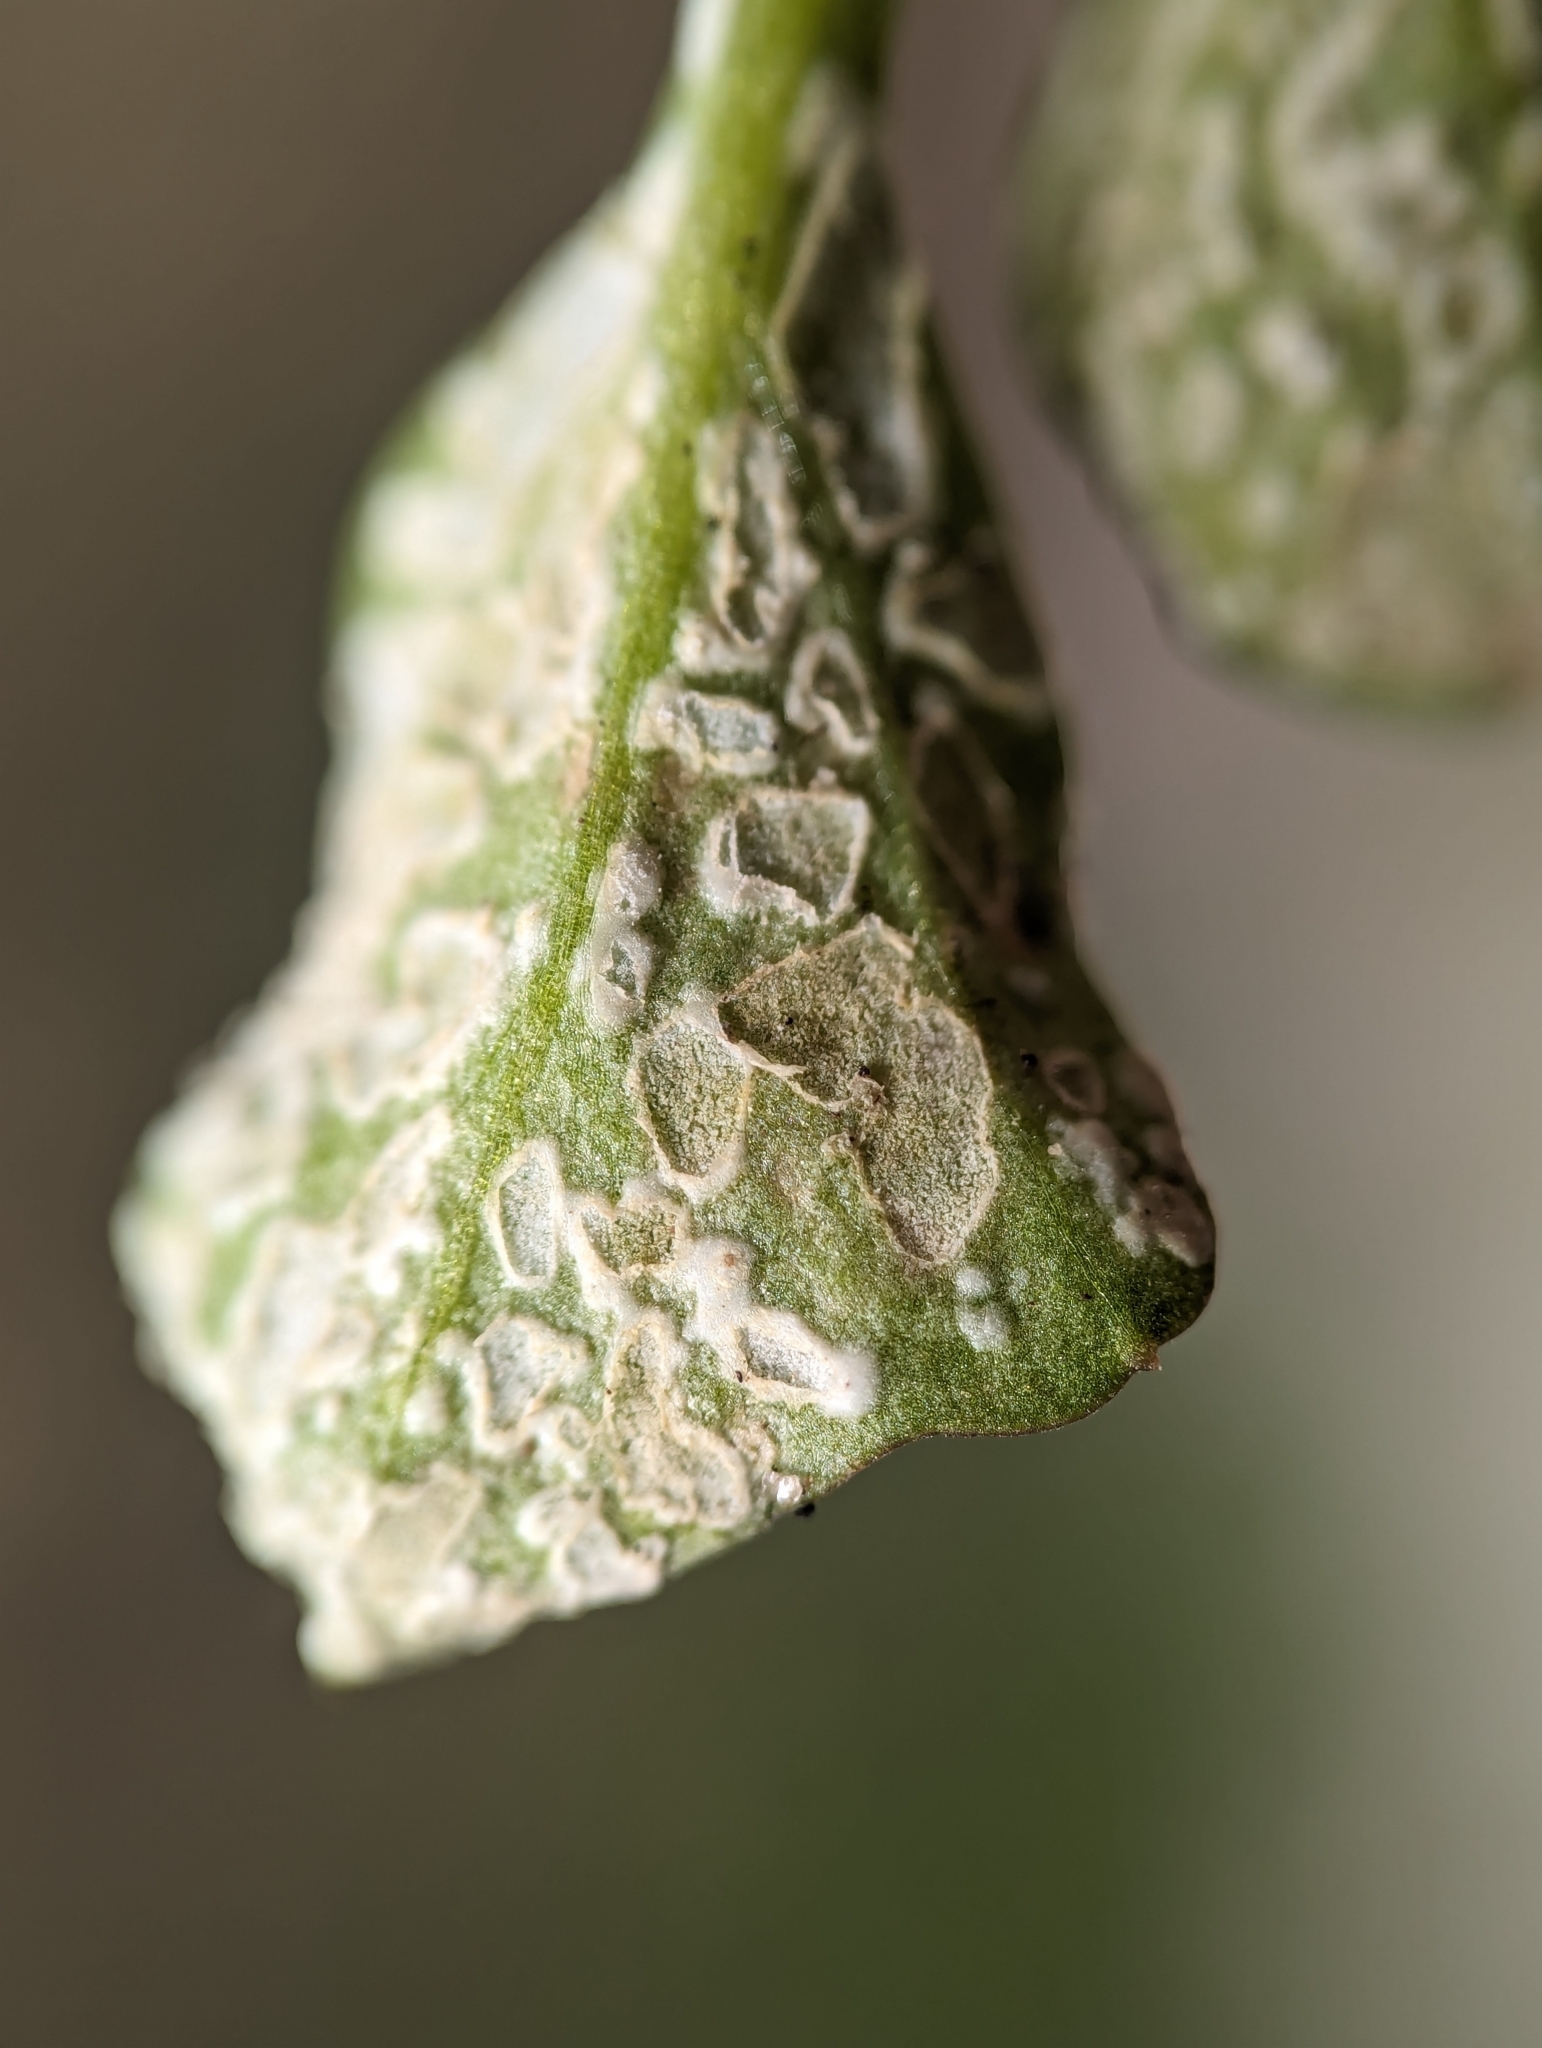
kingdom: Chromista
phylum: Oomycota
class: Peronosporea
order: Albuginales
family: Albuginaceae
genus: Albugo
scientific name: Albugo hohenheimia
